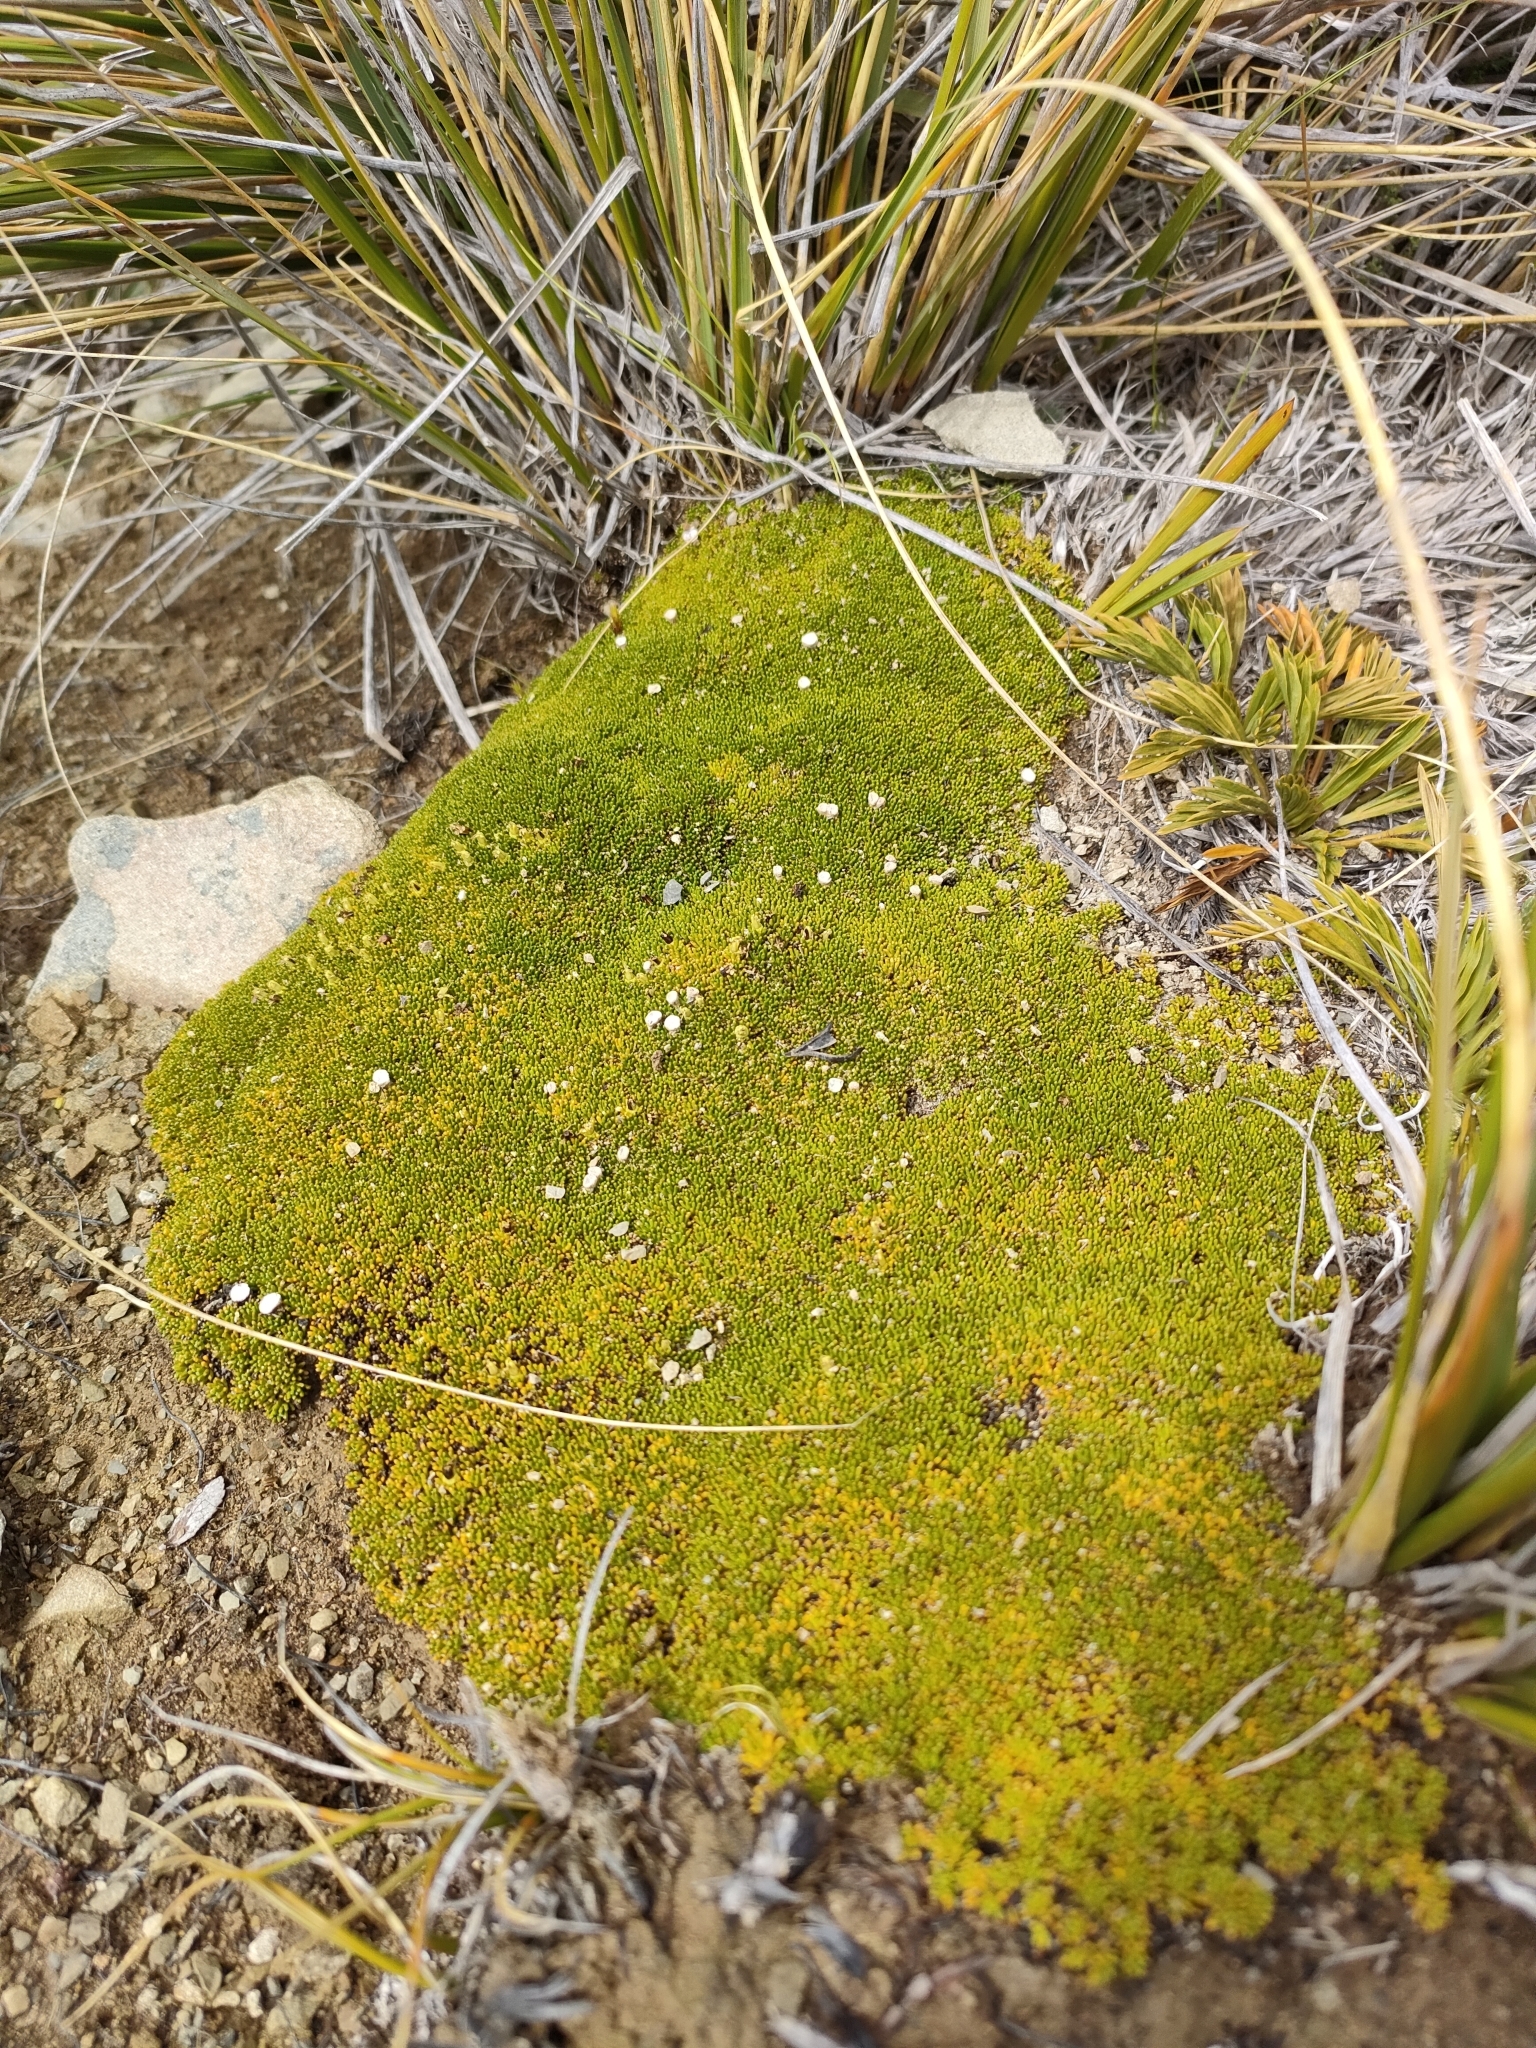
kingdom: Plantae
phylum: Tracheophyta
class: Magnoliopsida
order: Asterales
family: Stylidiaceae
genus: Phyllachne
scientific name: Phyllachne colensoi
